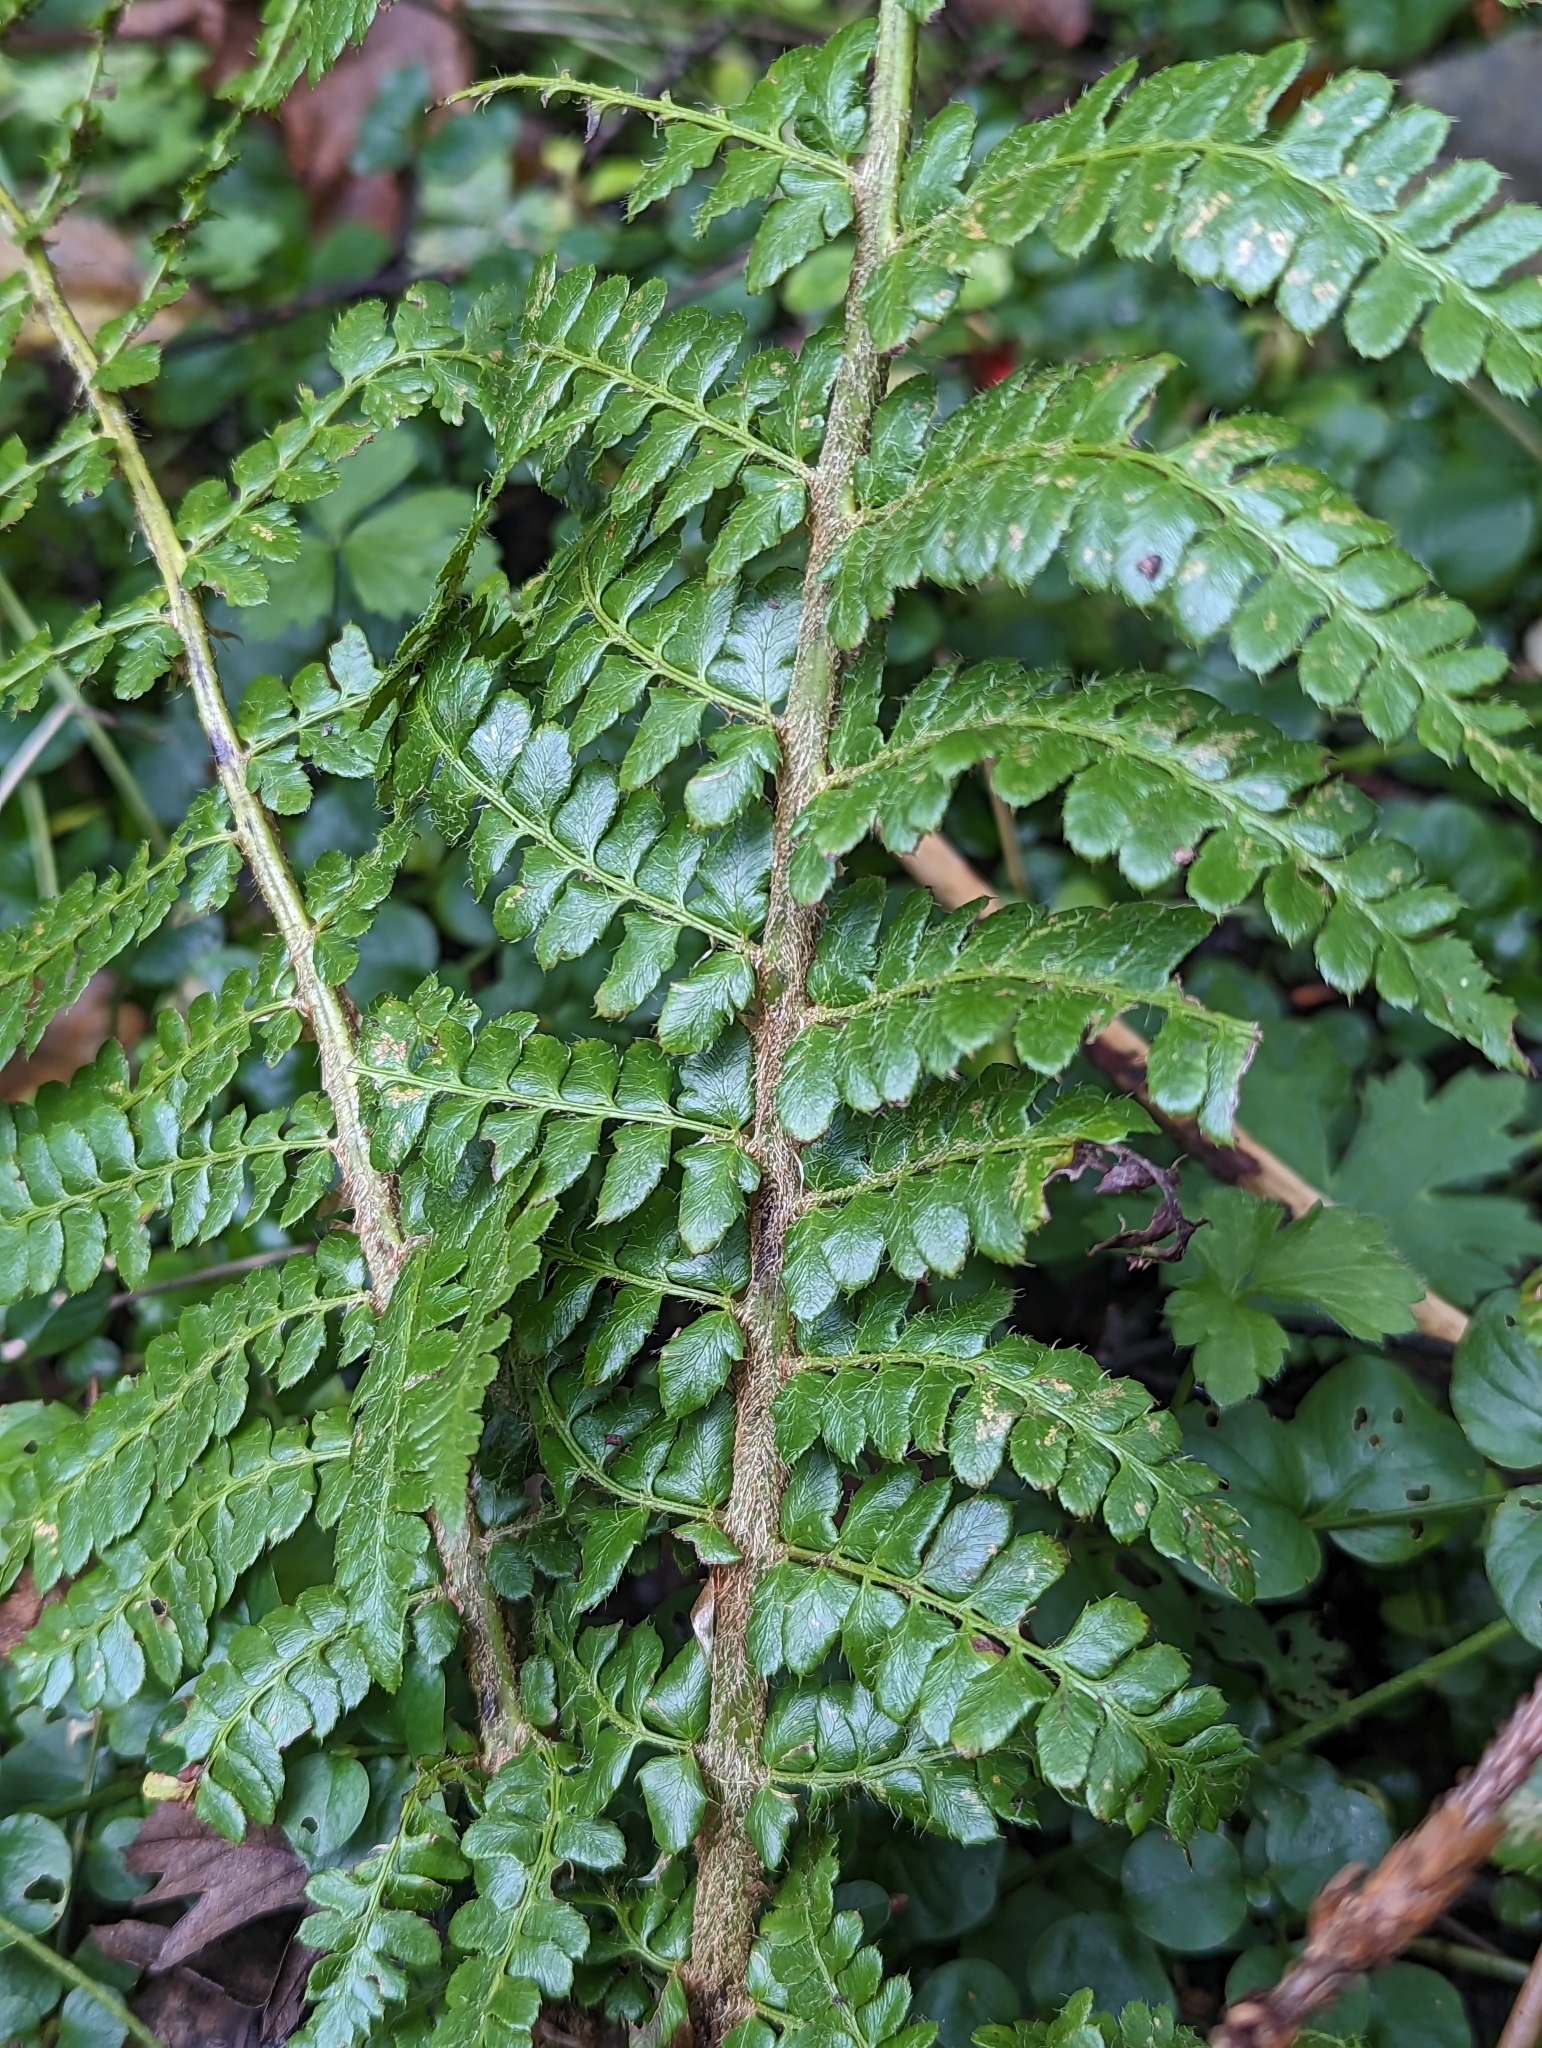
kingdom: Plantae
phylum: Tracheophyta
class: Polypodiopsida
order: Polypodiales
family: Dryopteridaceae
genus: Polystichum
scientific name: Polystichum braunii
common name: Braun's holly fern
